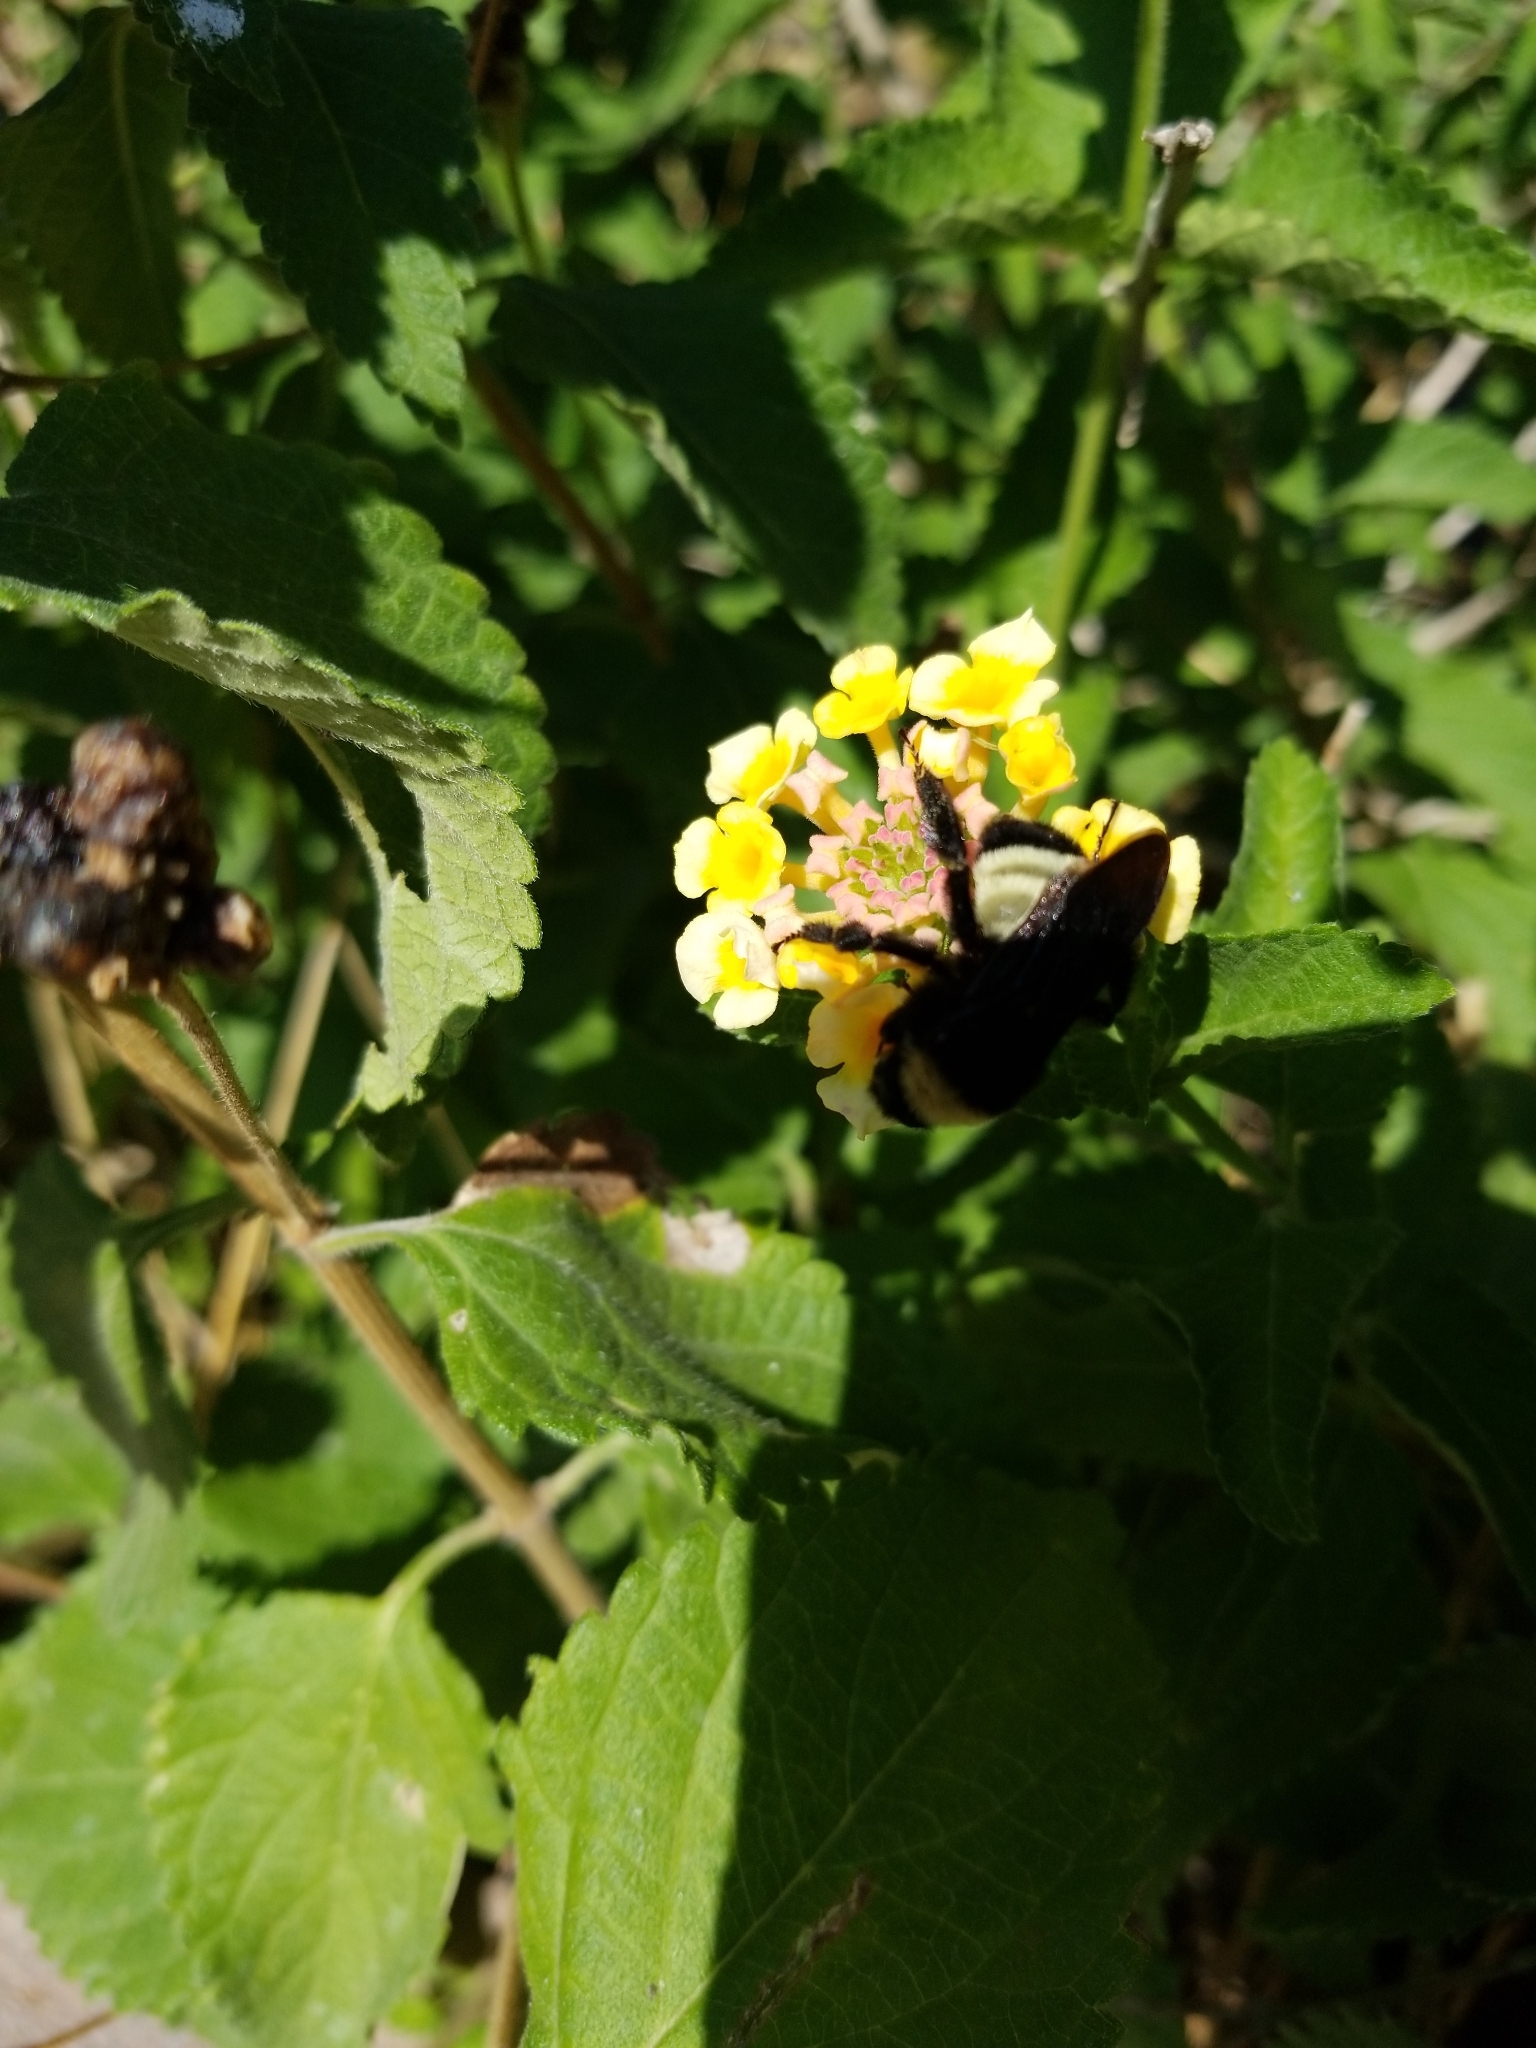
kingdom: Animalia
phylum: Arthropoda
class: Insecta
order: Hymenoptera
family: Apidae
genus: Bombus
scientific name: Bombus pensylvanicus
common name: Bumble bee
